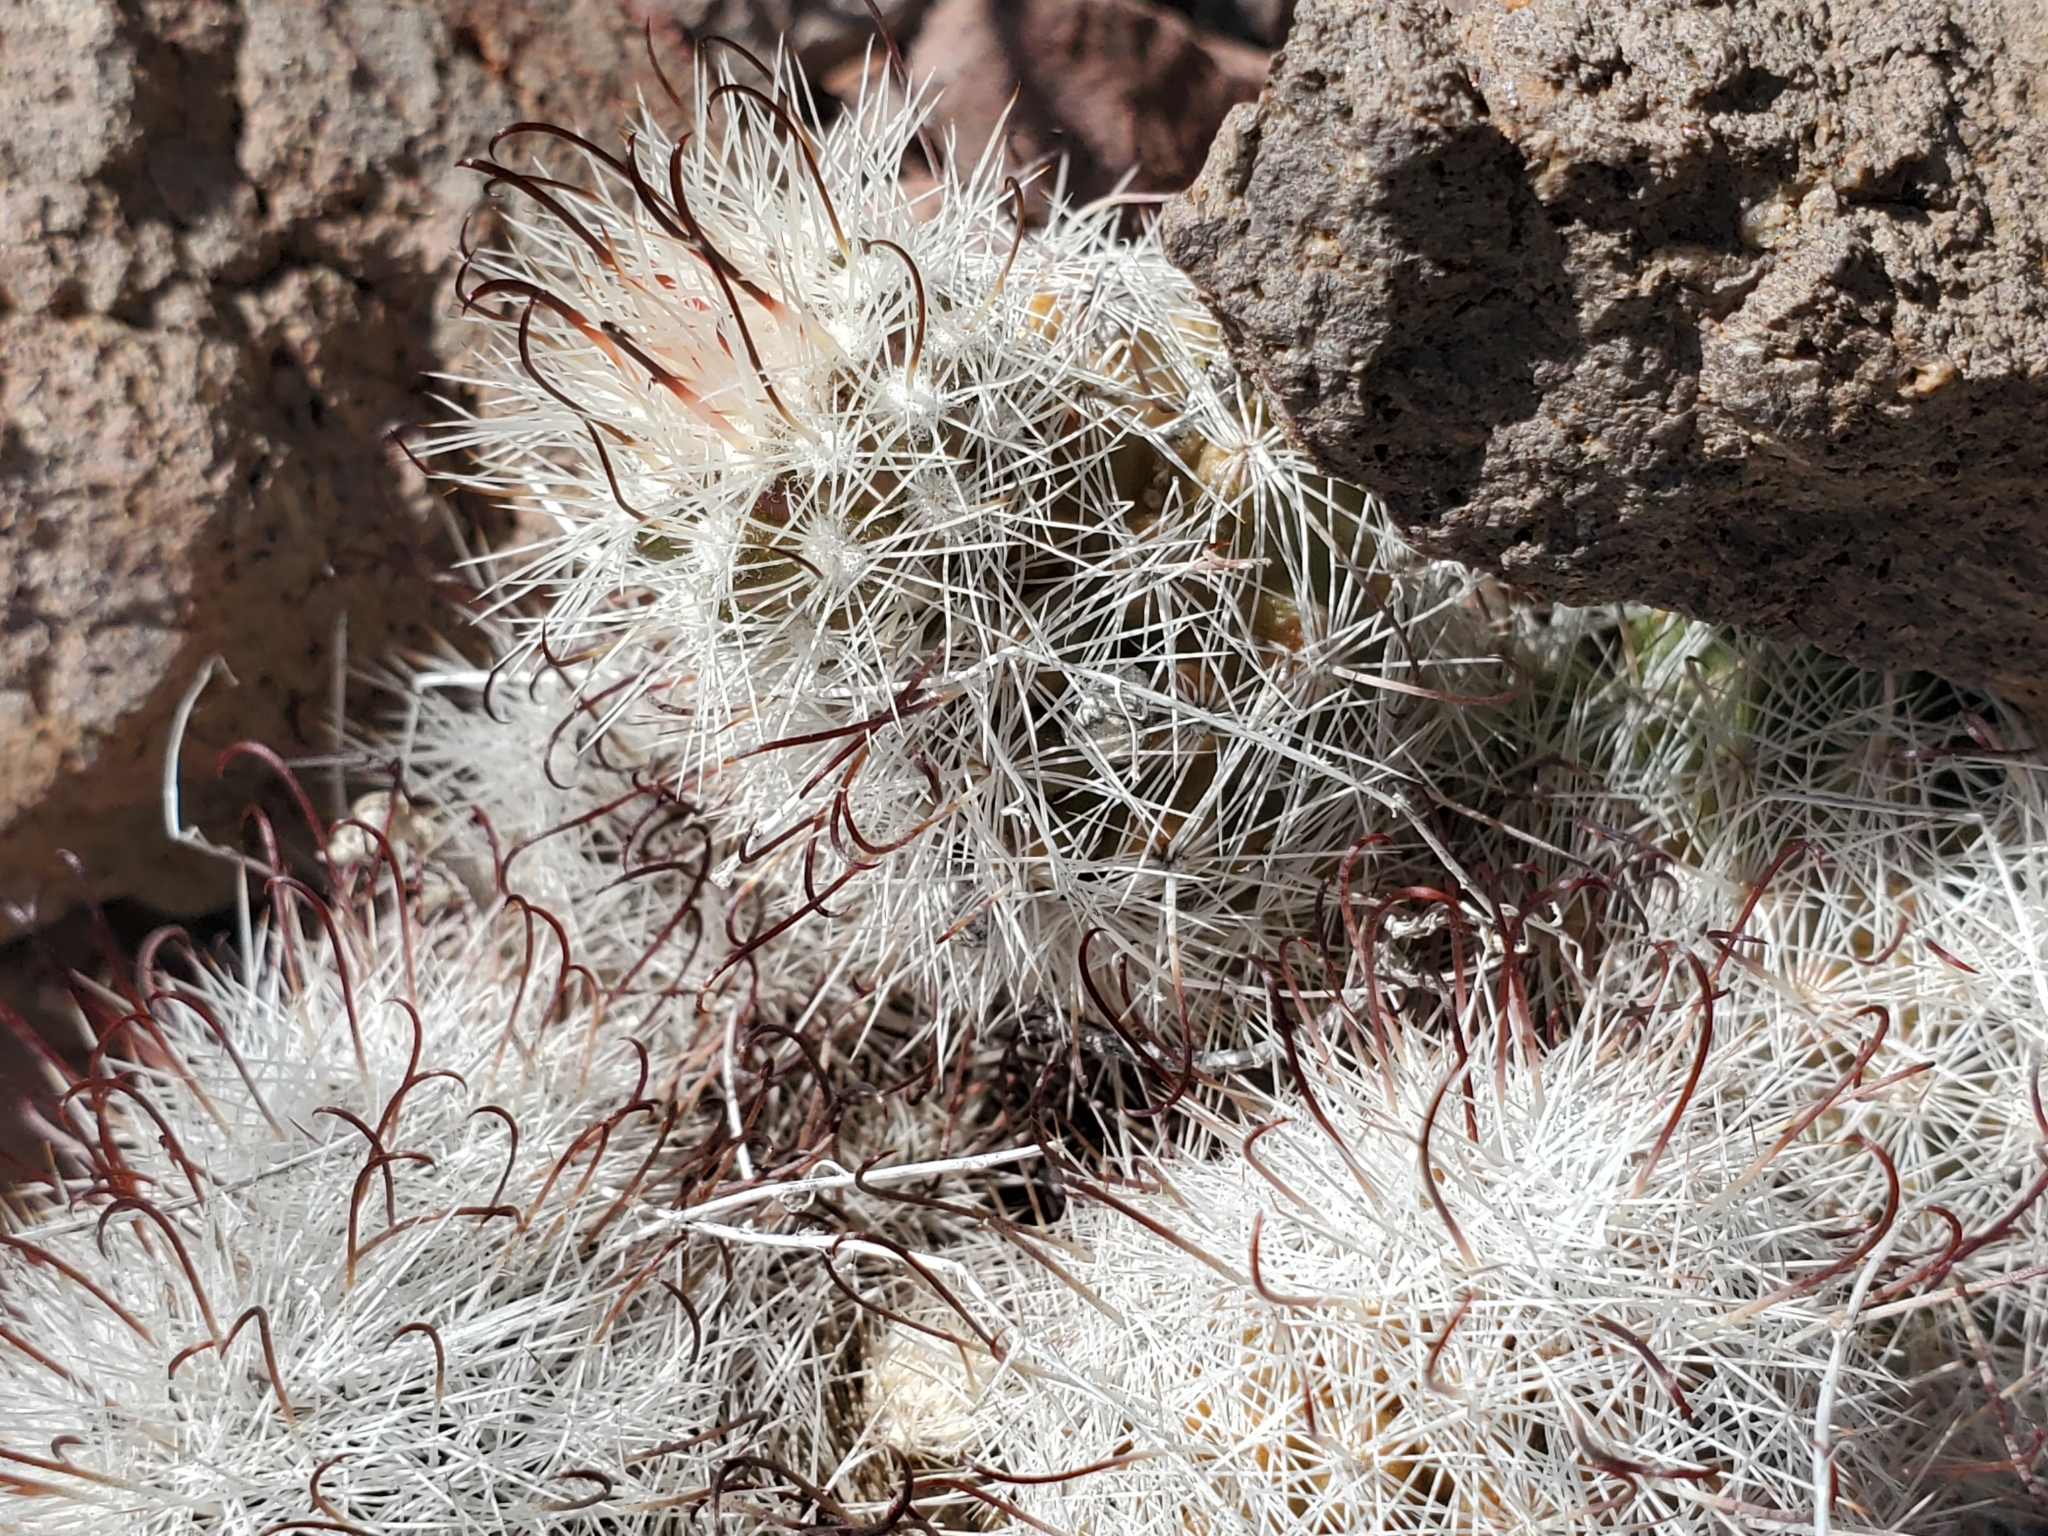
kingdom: Plantae
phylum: Tracheophyta
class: Magnoliopsida
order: Caryophyllales
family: Cactaceae
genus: Cochemiea
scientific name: Cochemiea grahamii
